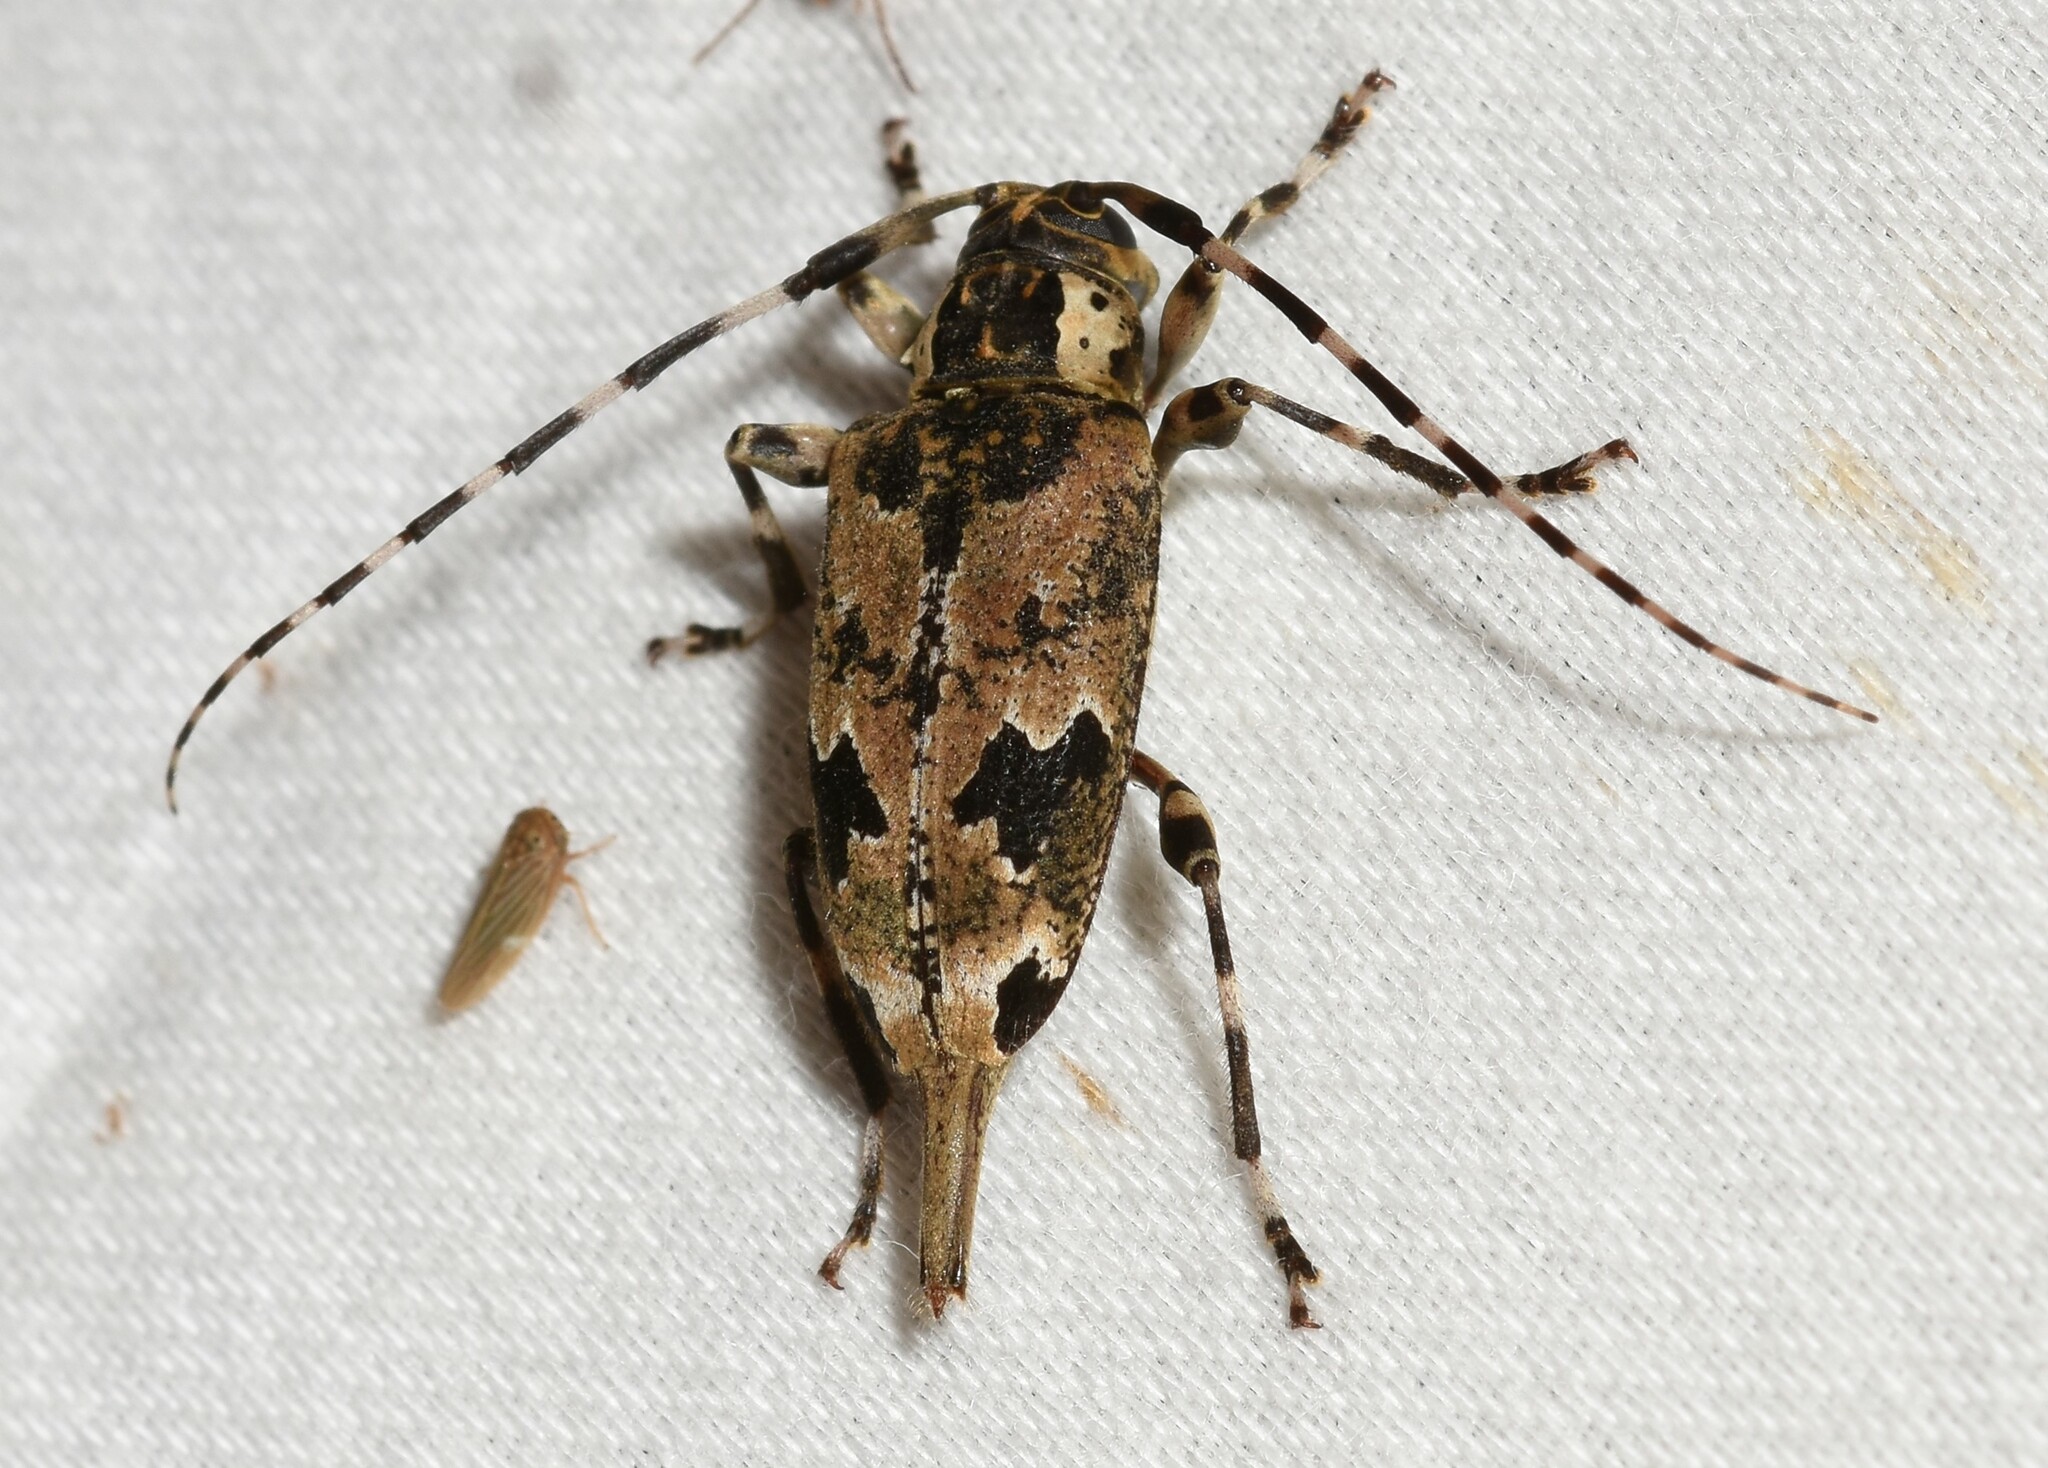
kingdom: Animalia
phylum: Arthropoda
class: Insecta
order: Coleoptera
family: Cerambycidae
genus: Graphisurus
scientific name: Graphisurus triangulifer
